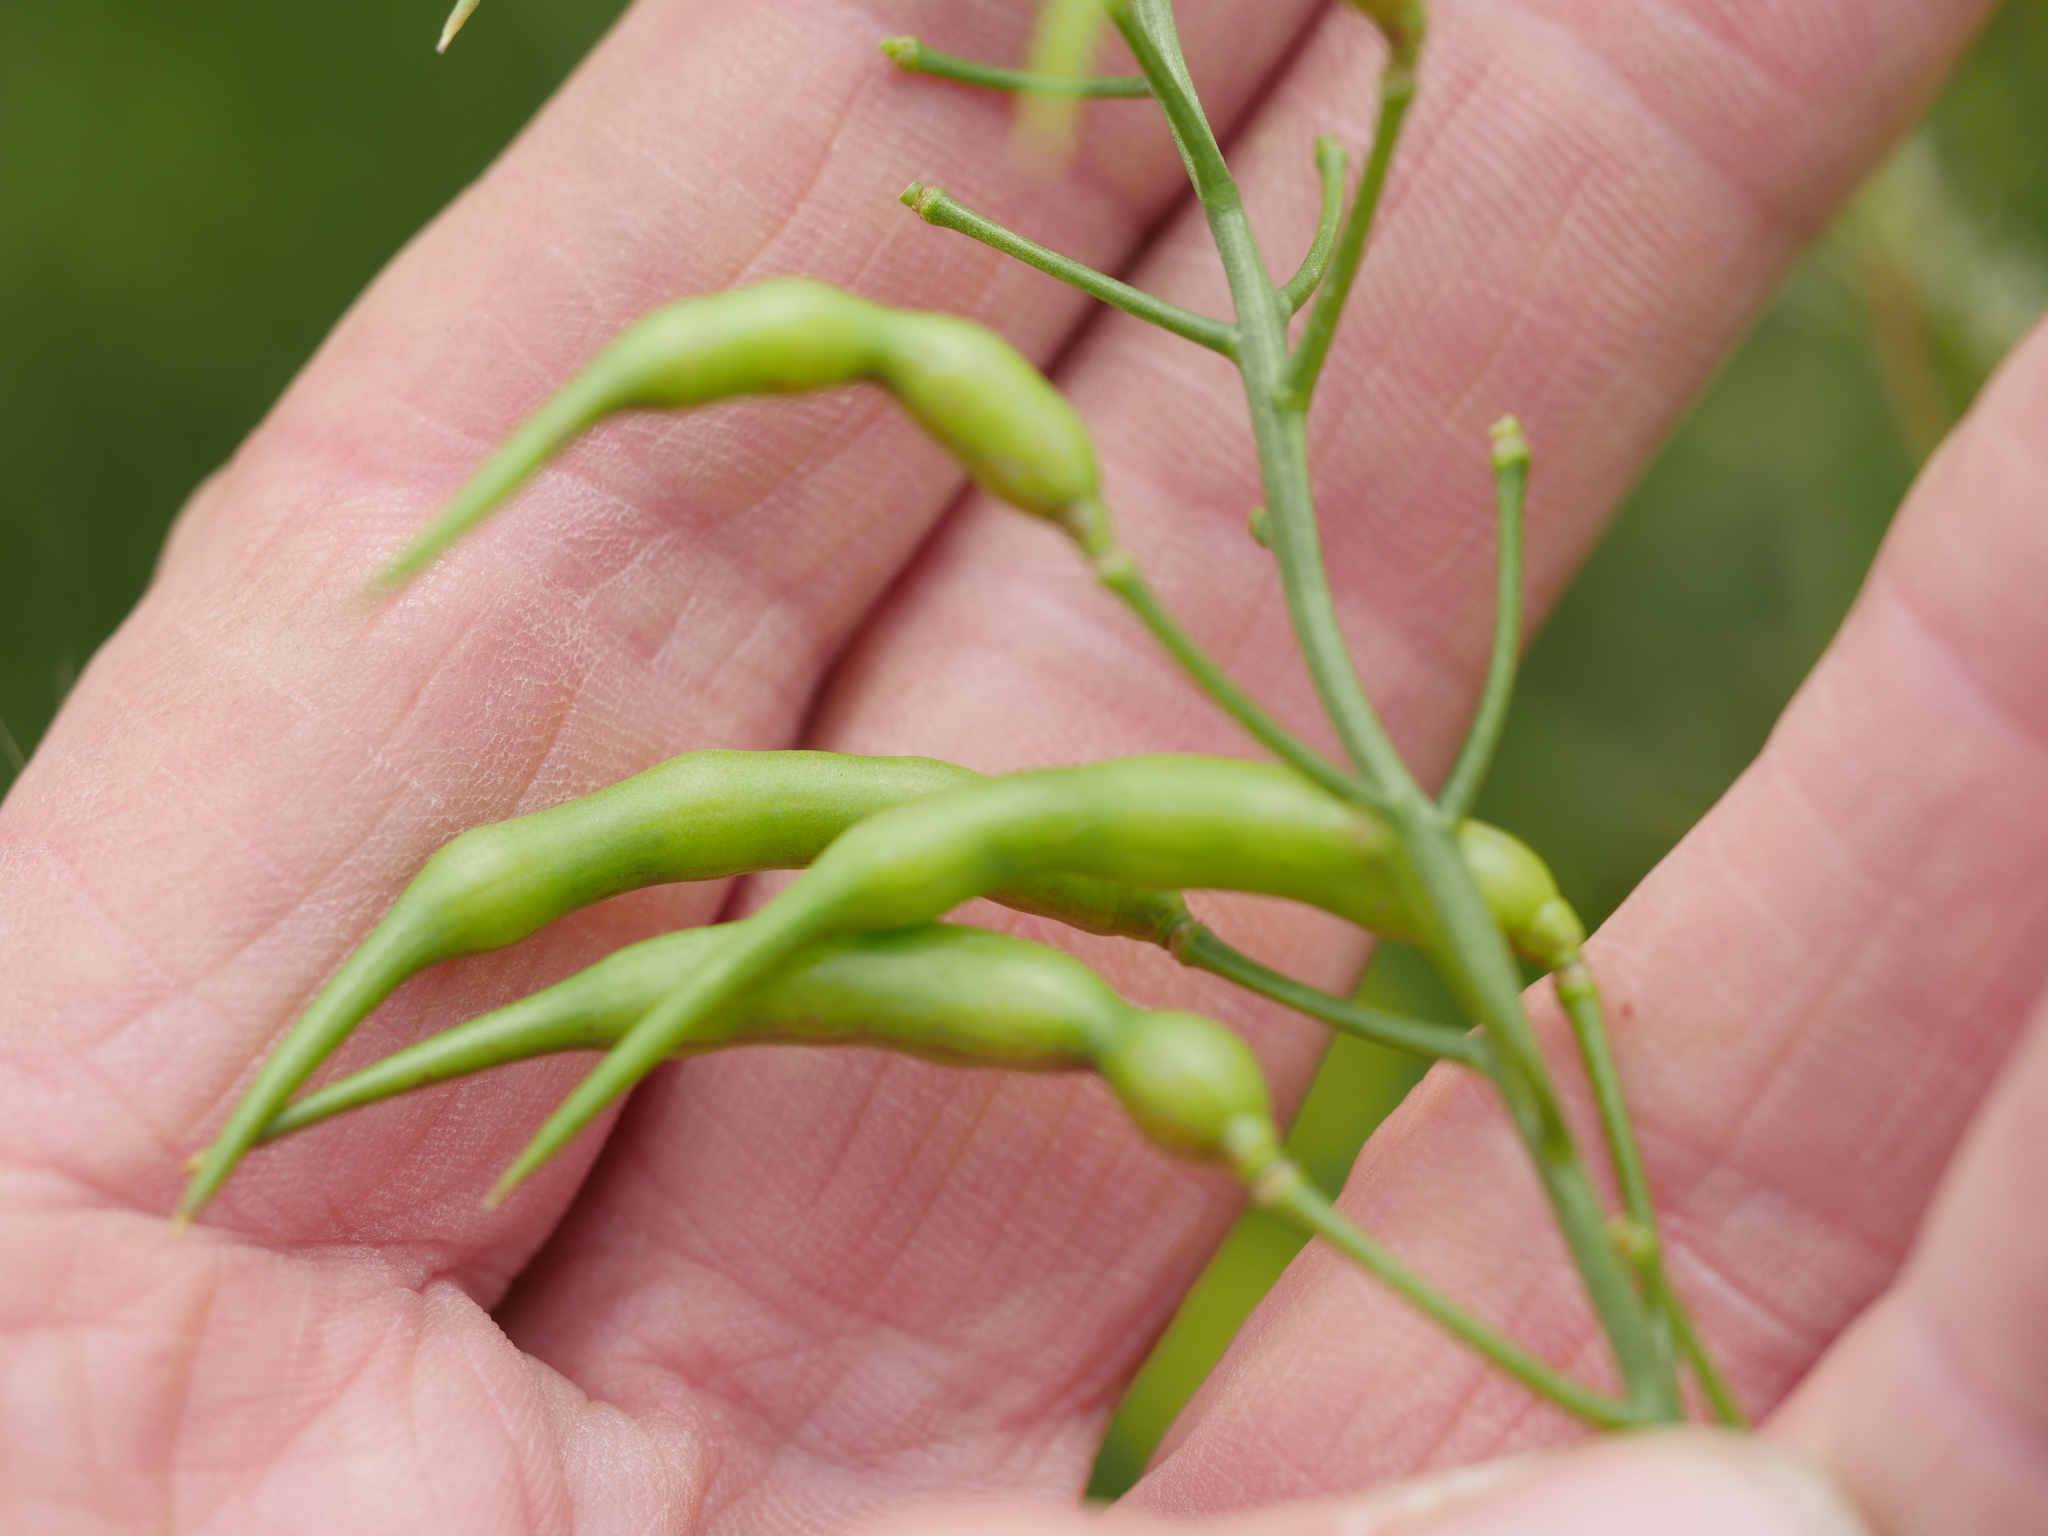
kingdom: Plantae
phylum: Tracheophyta
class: Magnoliopsida
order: Brassicales
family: Brassicaceae
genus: Raphanus
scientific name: Raphanus raphanistrum
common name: Wild radish
